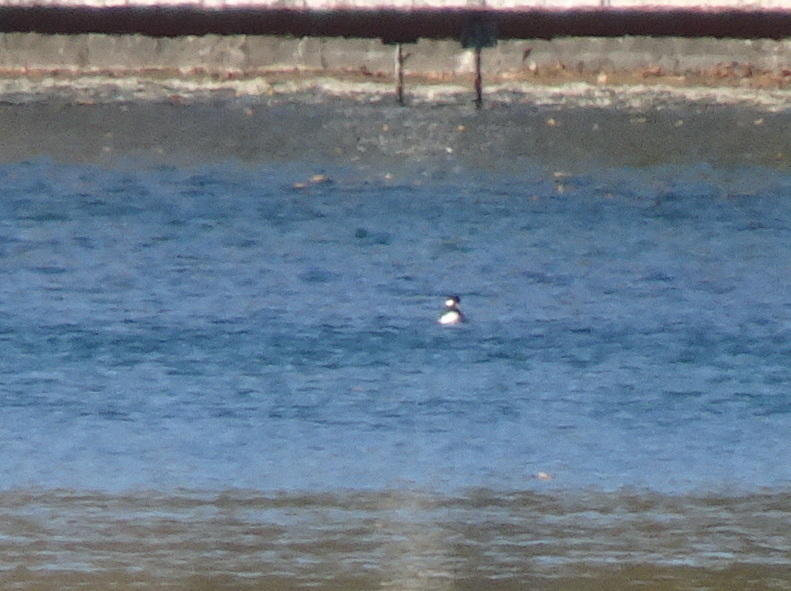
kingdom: Animalia
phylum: Chordata
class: Aves
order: Anseriformes
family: Anatidae
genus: Bucephala
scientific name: Bucephala albeola
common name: Bufflehead
